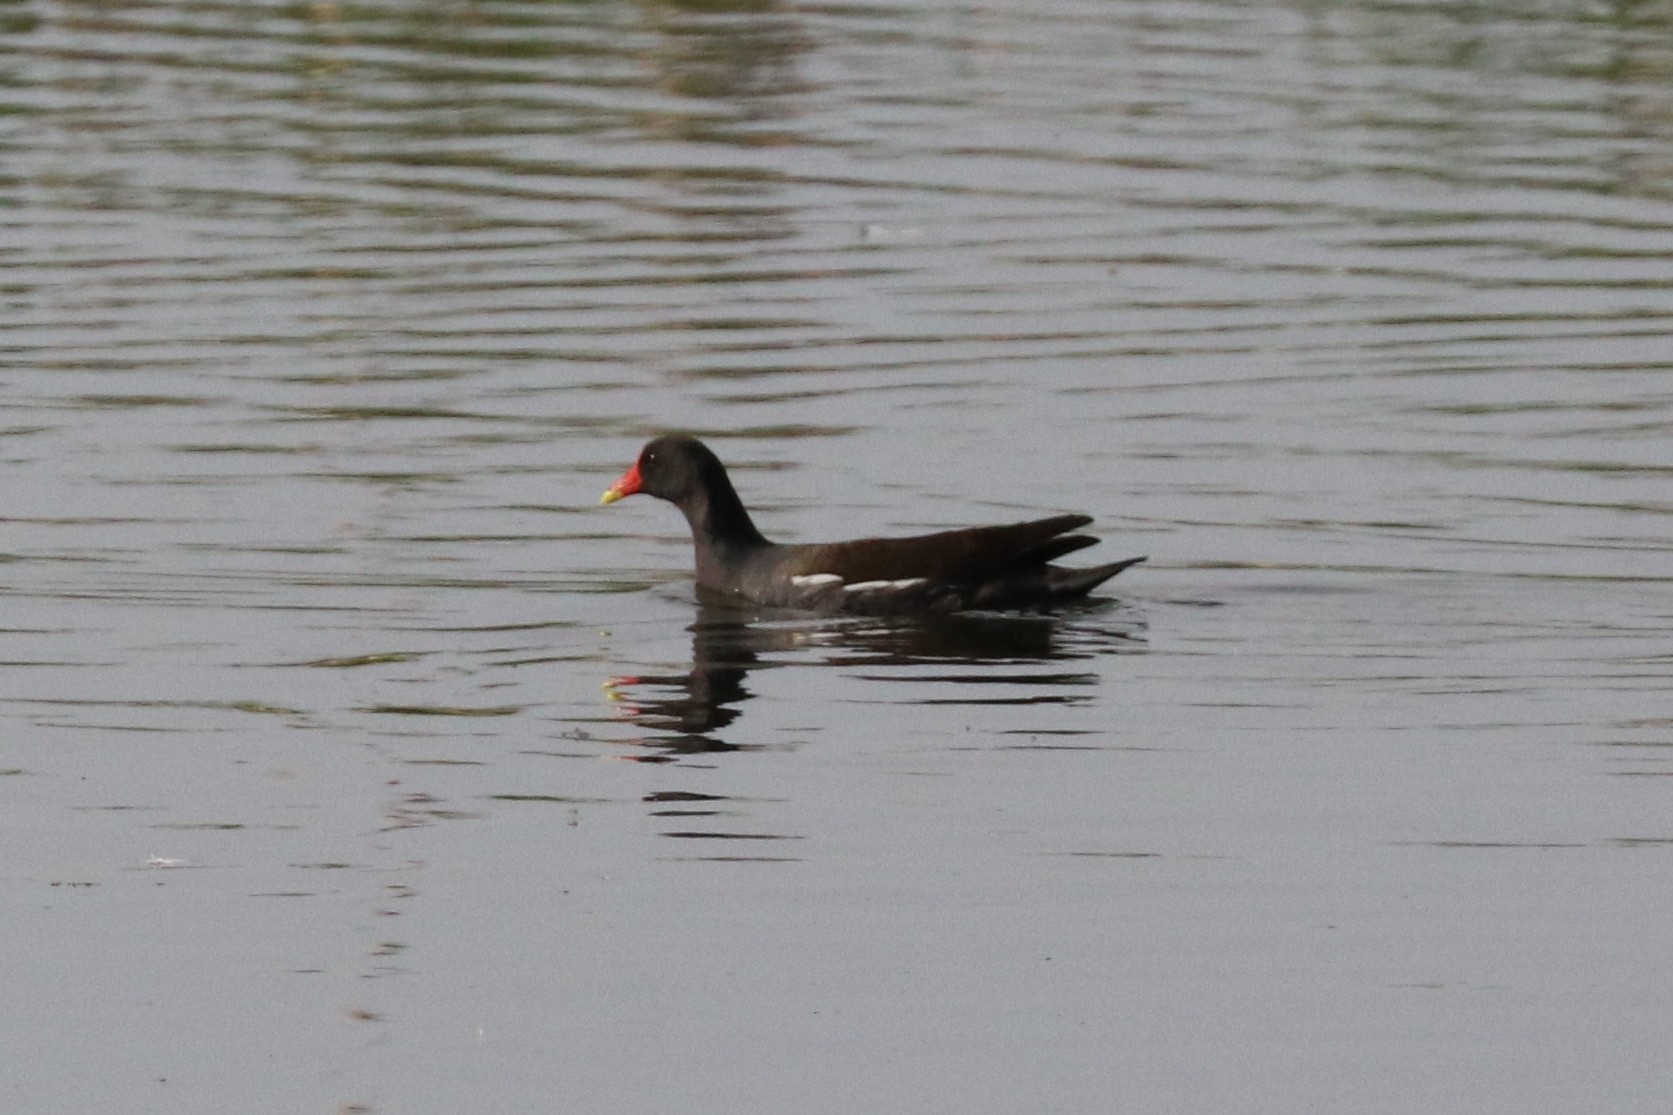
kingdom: Animalia
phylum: Chordata
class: Aves
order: Gruiformes
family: Rallidae
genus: Gallinula
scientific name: Gallinula chloropus
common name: Common moorhen
